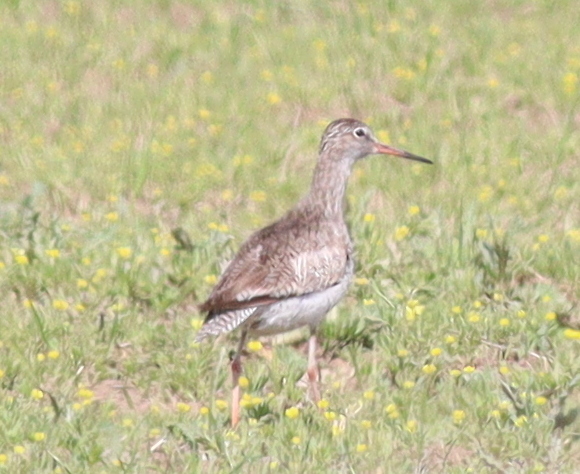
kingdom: Animalia
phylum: Chordata
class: Aves
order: Charadriiformes
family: Scolopacidae
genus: Tringa
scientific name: Tringa totanus
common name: Common redshank
